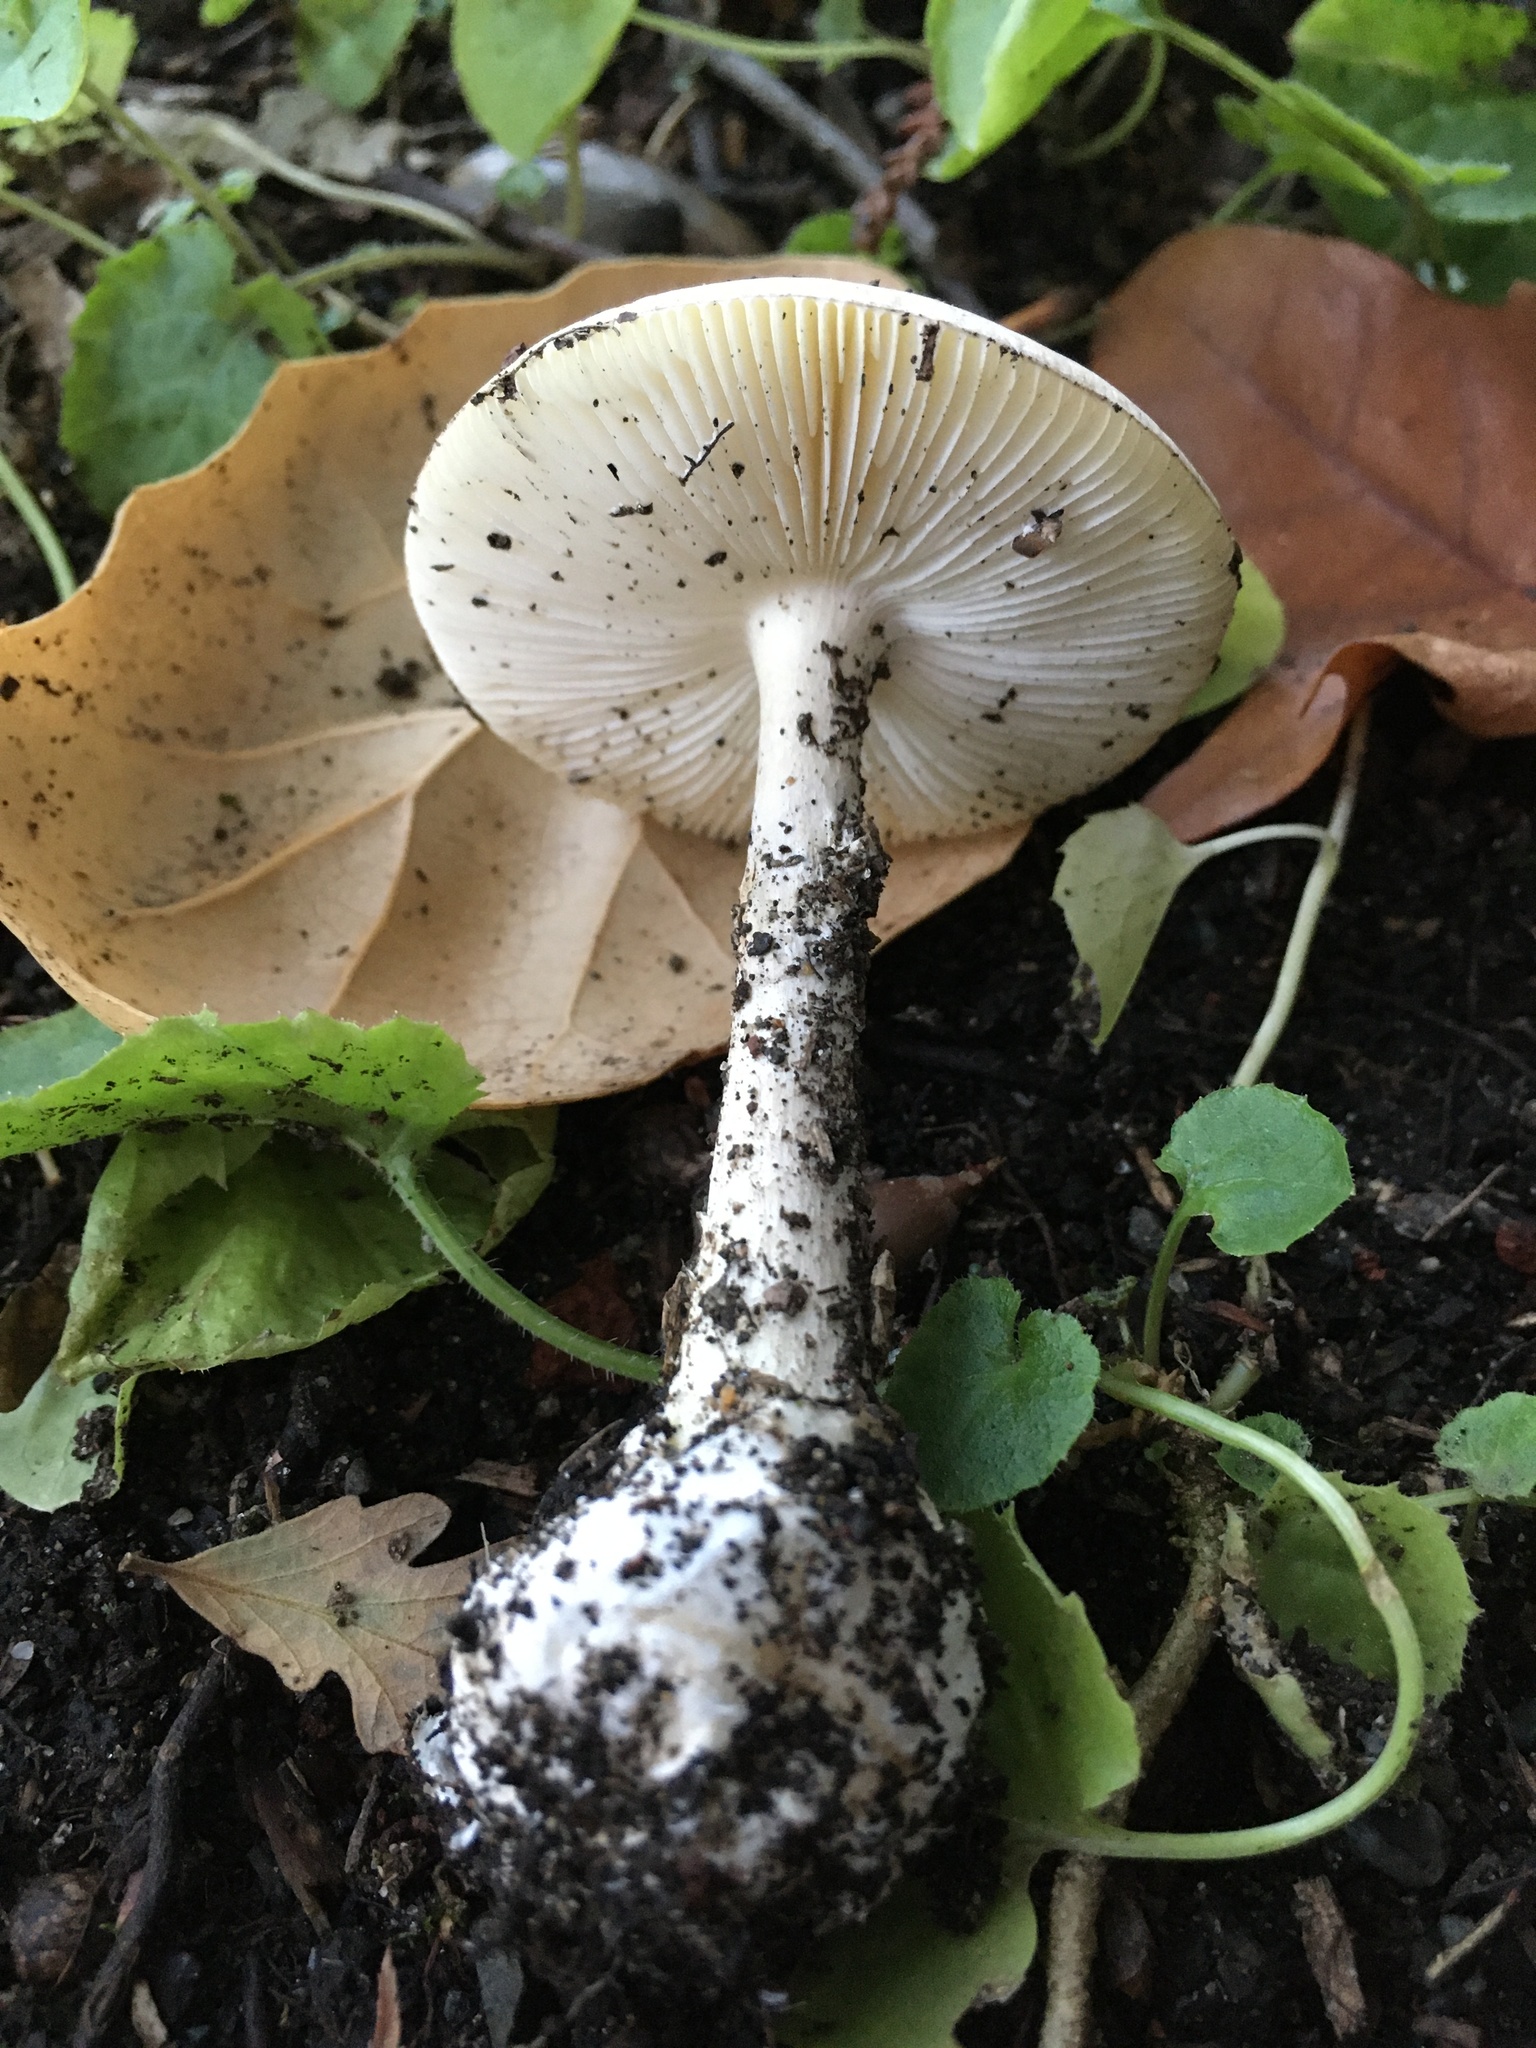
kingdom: Fungi
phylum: Basidiomycota
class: Agaricomycetes
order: Agaricales
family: Amanitaceae
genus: Amanita
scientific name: Amanita phalloides
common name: Death cap
